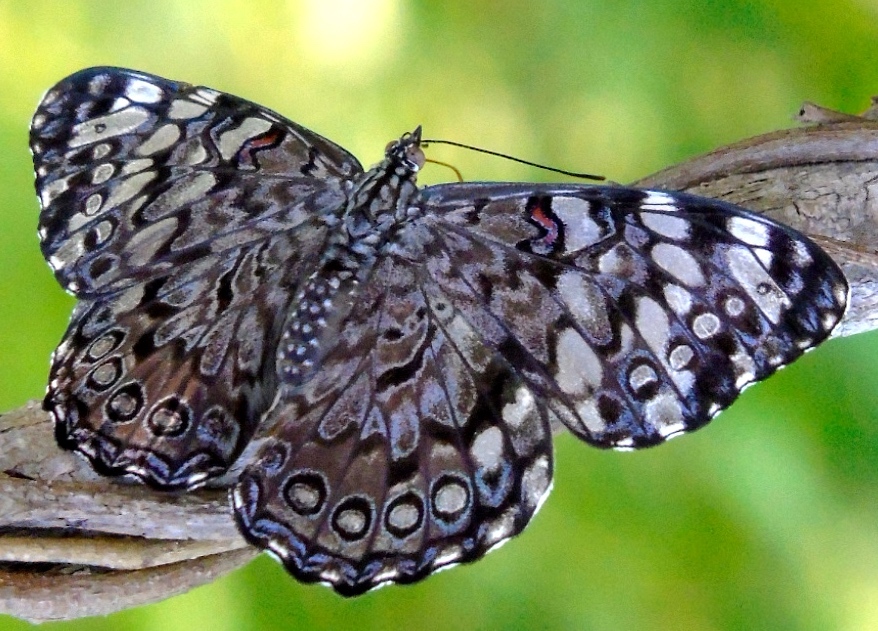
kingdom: Animalia
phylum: Arthropoda
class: Insecta
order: Lepidoptera
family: Nymphalidae
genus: Hamadryas
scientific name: Hamadryas guatemalena
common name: Guatemalan cracker
